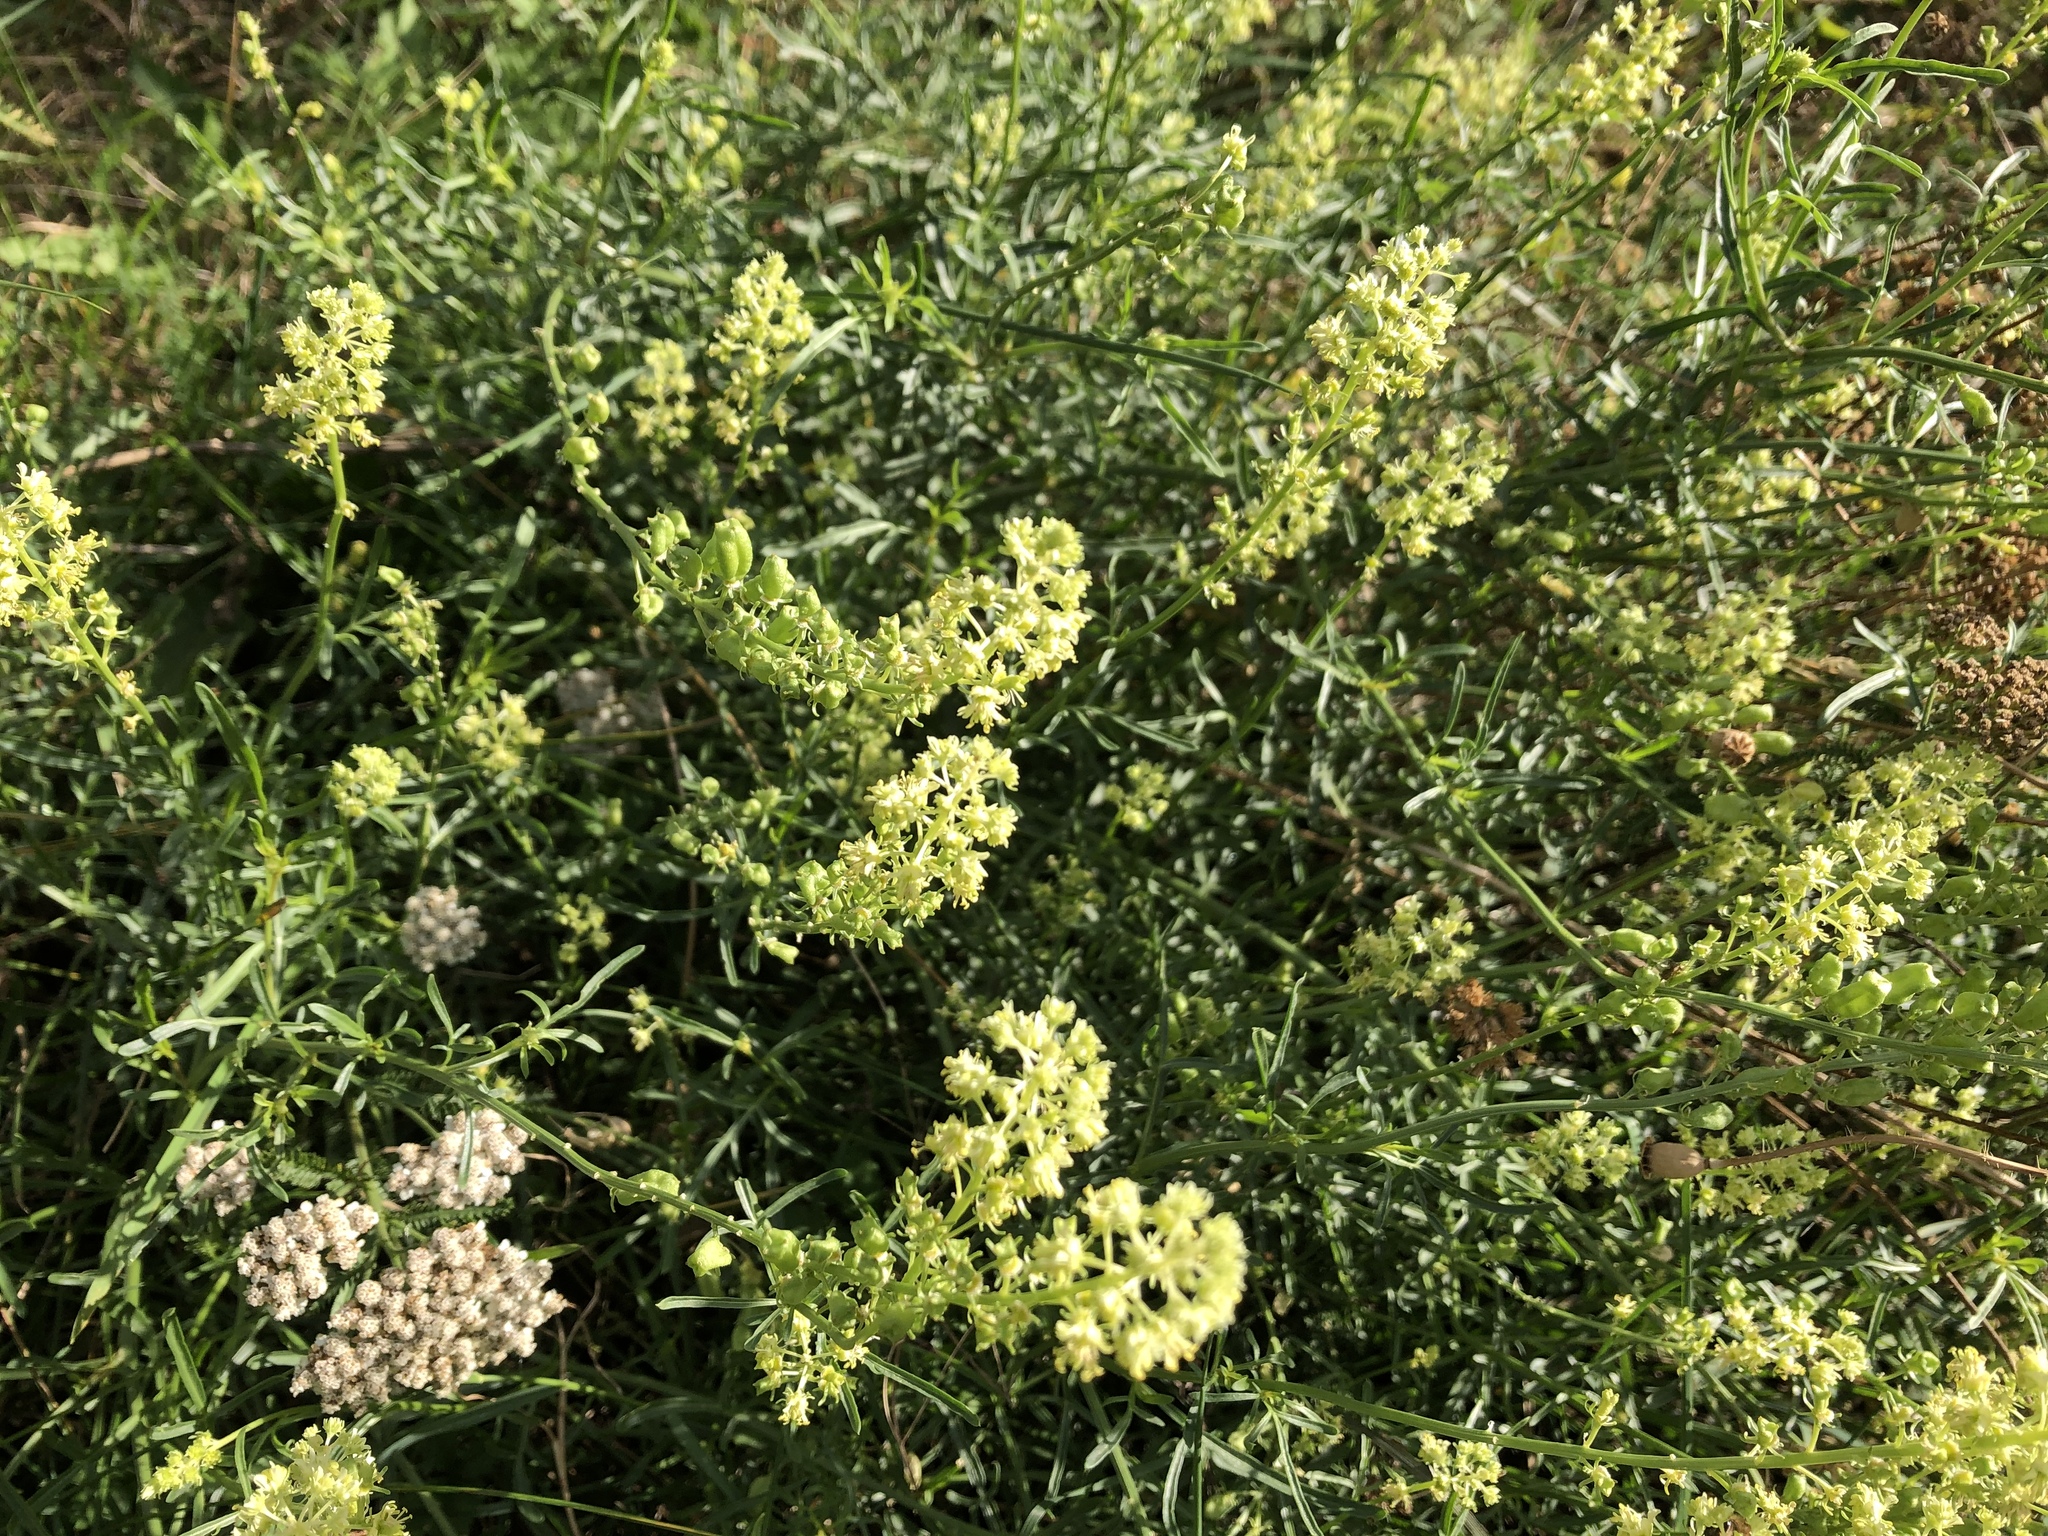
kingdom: Plantae
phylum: Tracheophyta
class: Magnoliopsida
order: Brassicales
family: Resedaceae
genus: Reseda
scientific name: Reseda lutea
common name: Wild mignonette
